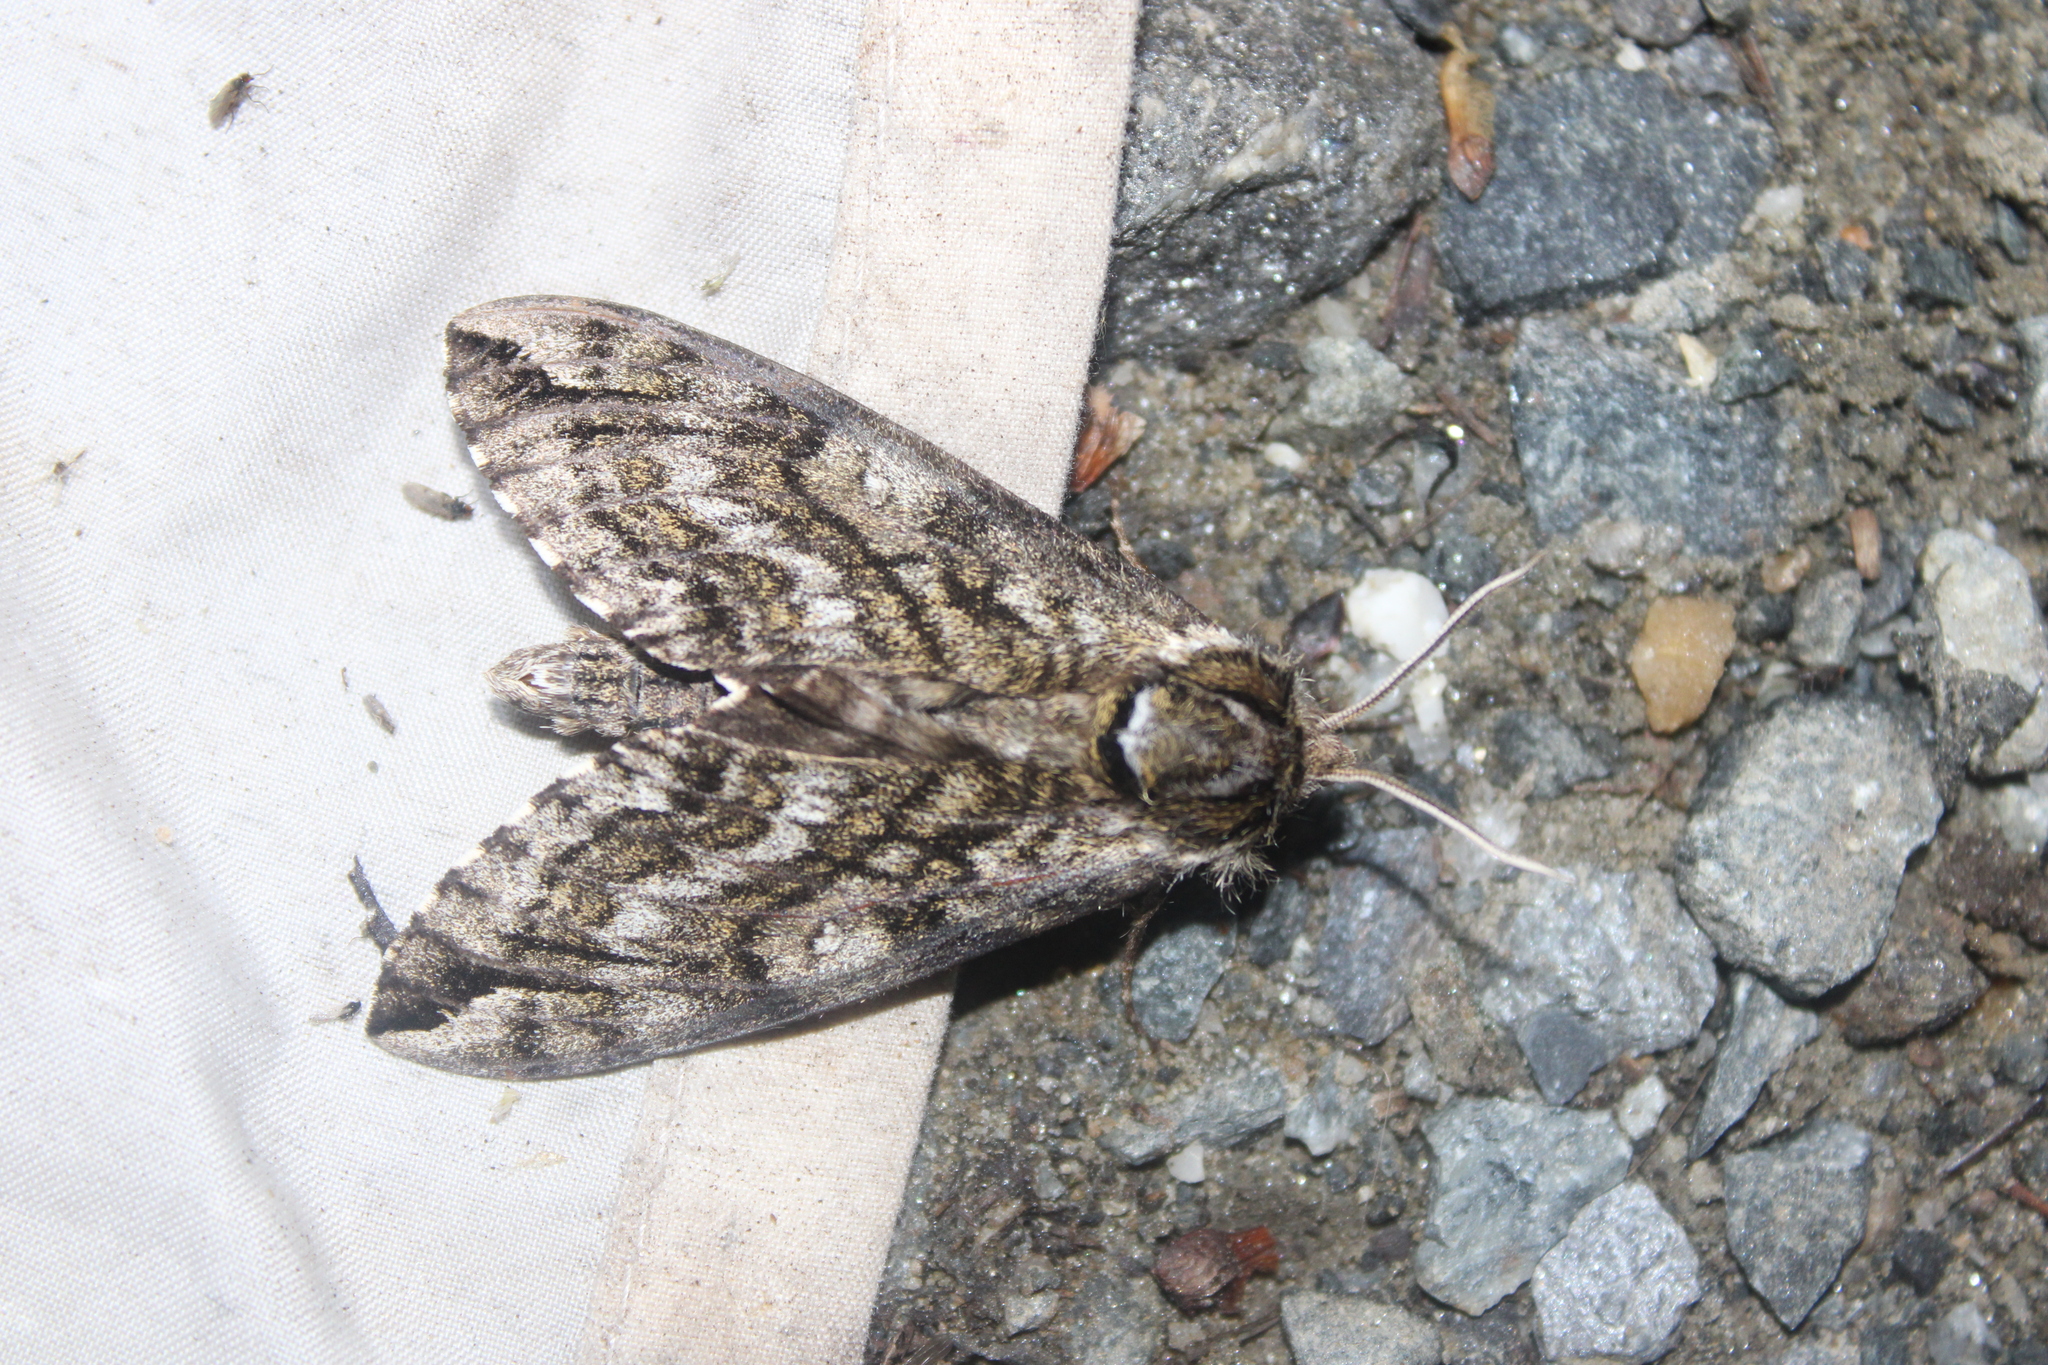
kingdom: Animalia
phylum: Arthropoda
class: Insecta
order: Lepidoptera
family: Sphingidae
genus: Ceratomia
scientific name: Ceratomia undulosa
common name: Waved sphinx
